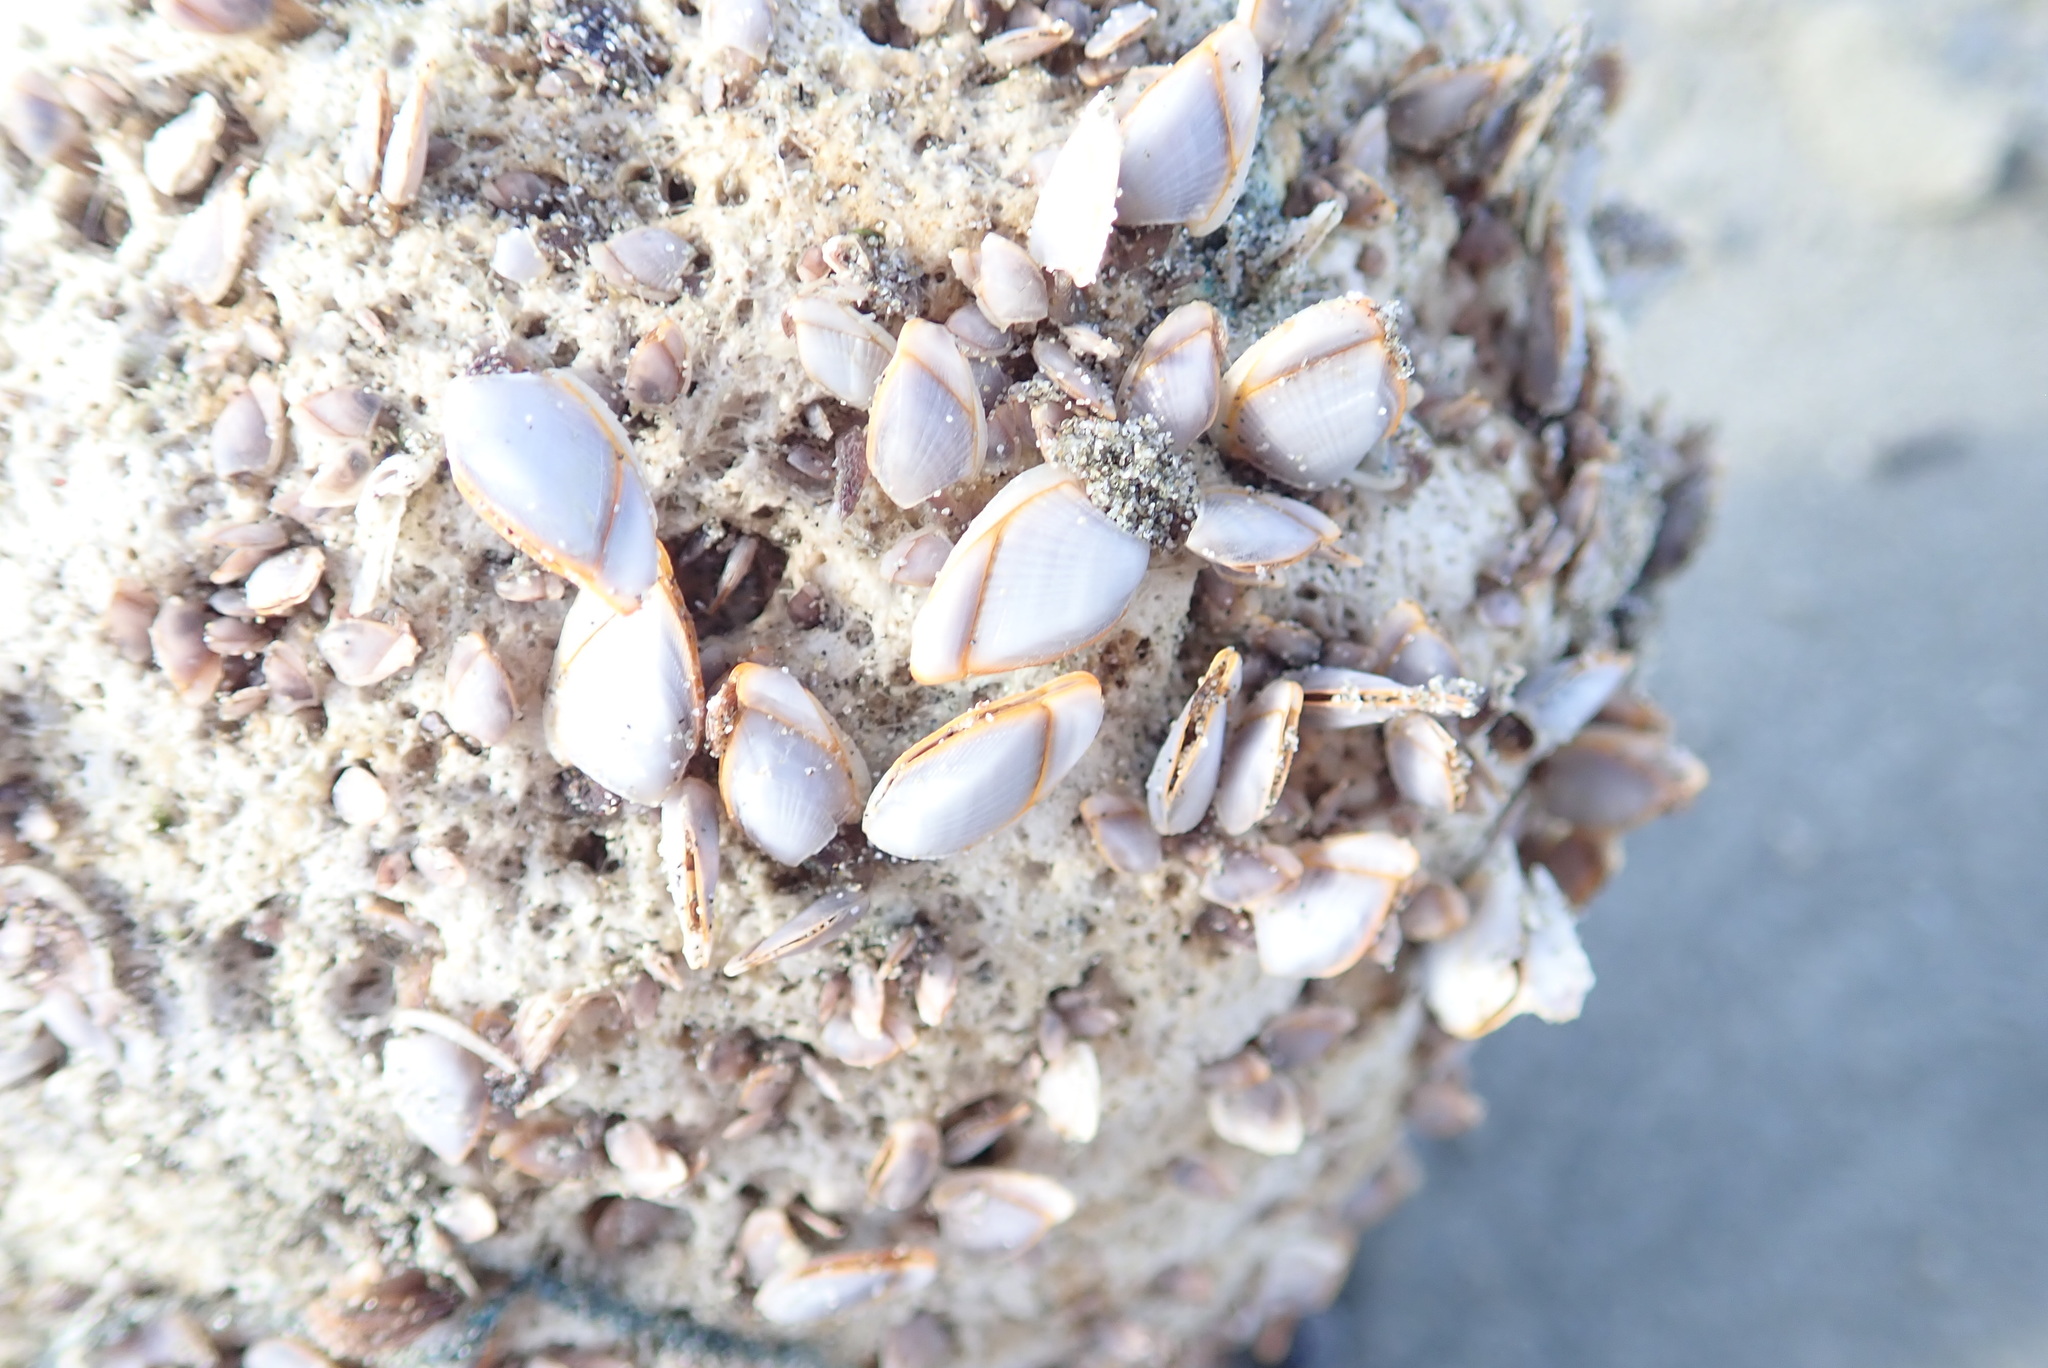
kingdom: Animalia
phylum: Arthropoda
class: Maxillopoda
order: Pedunculata
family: Lepadidae
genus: Lepas
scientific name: Lepas anserifera
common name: Goose barnacle
